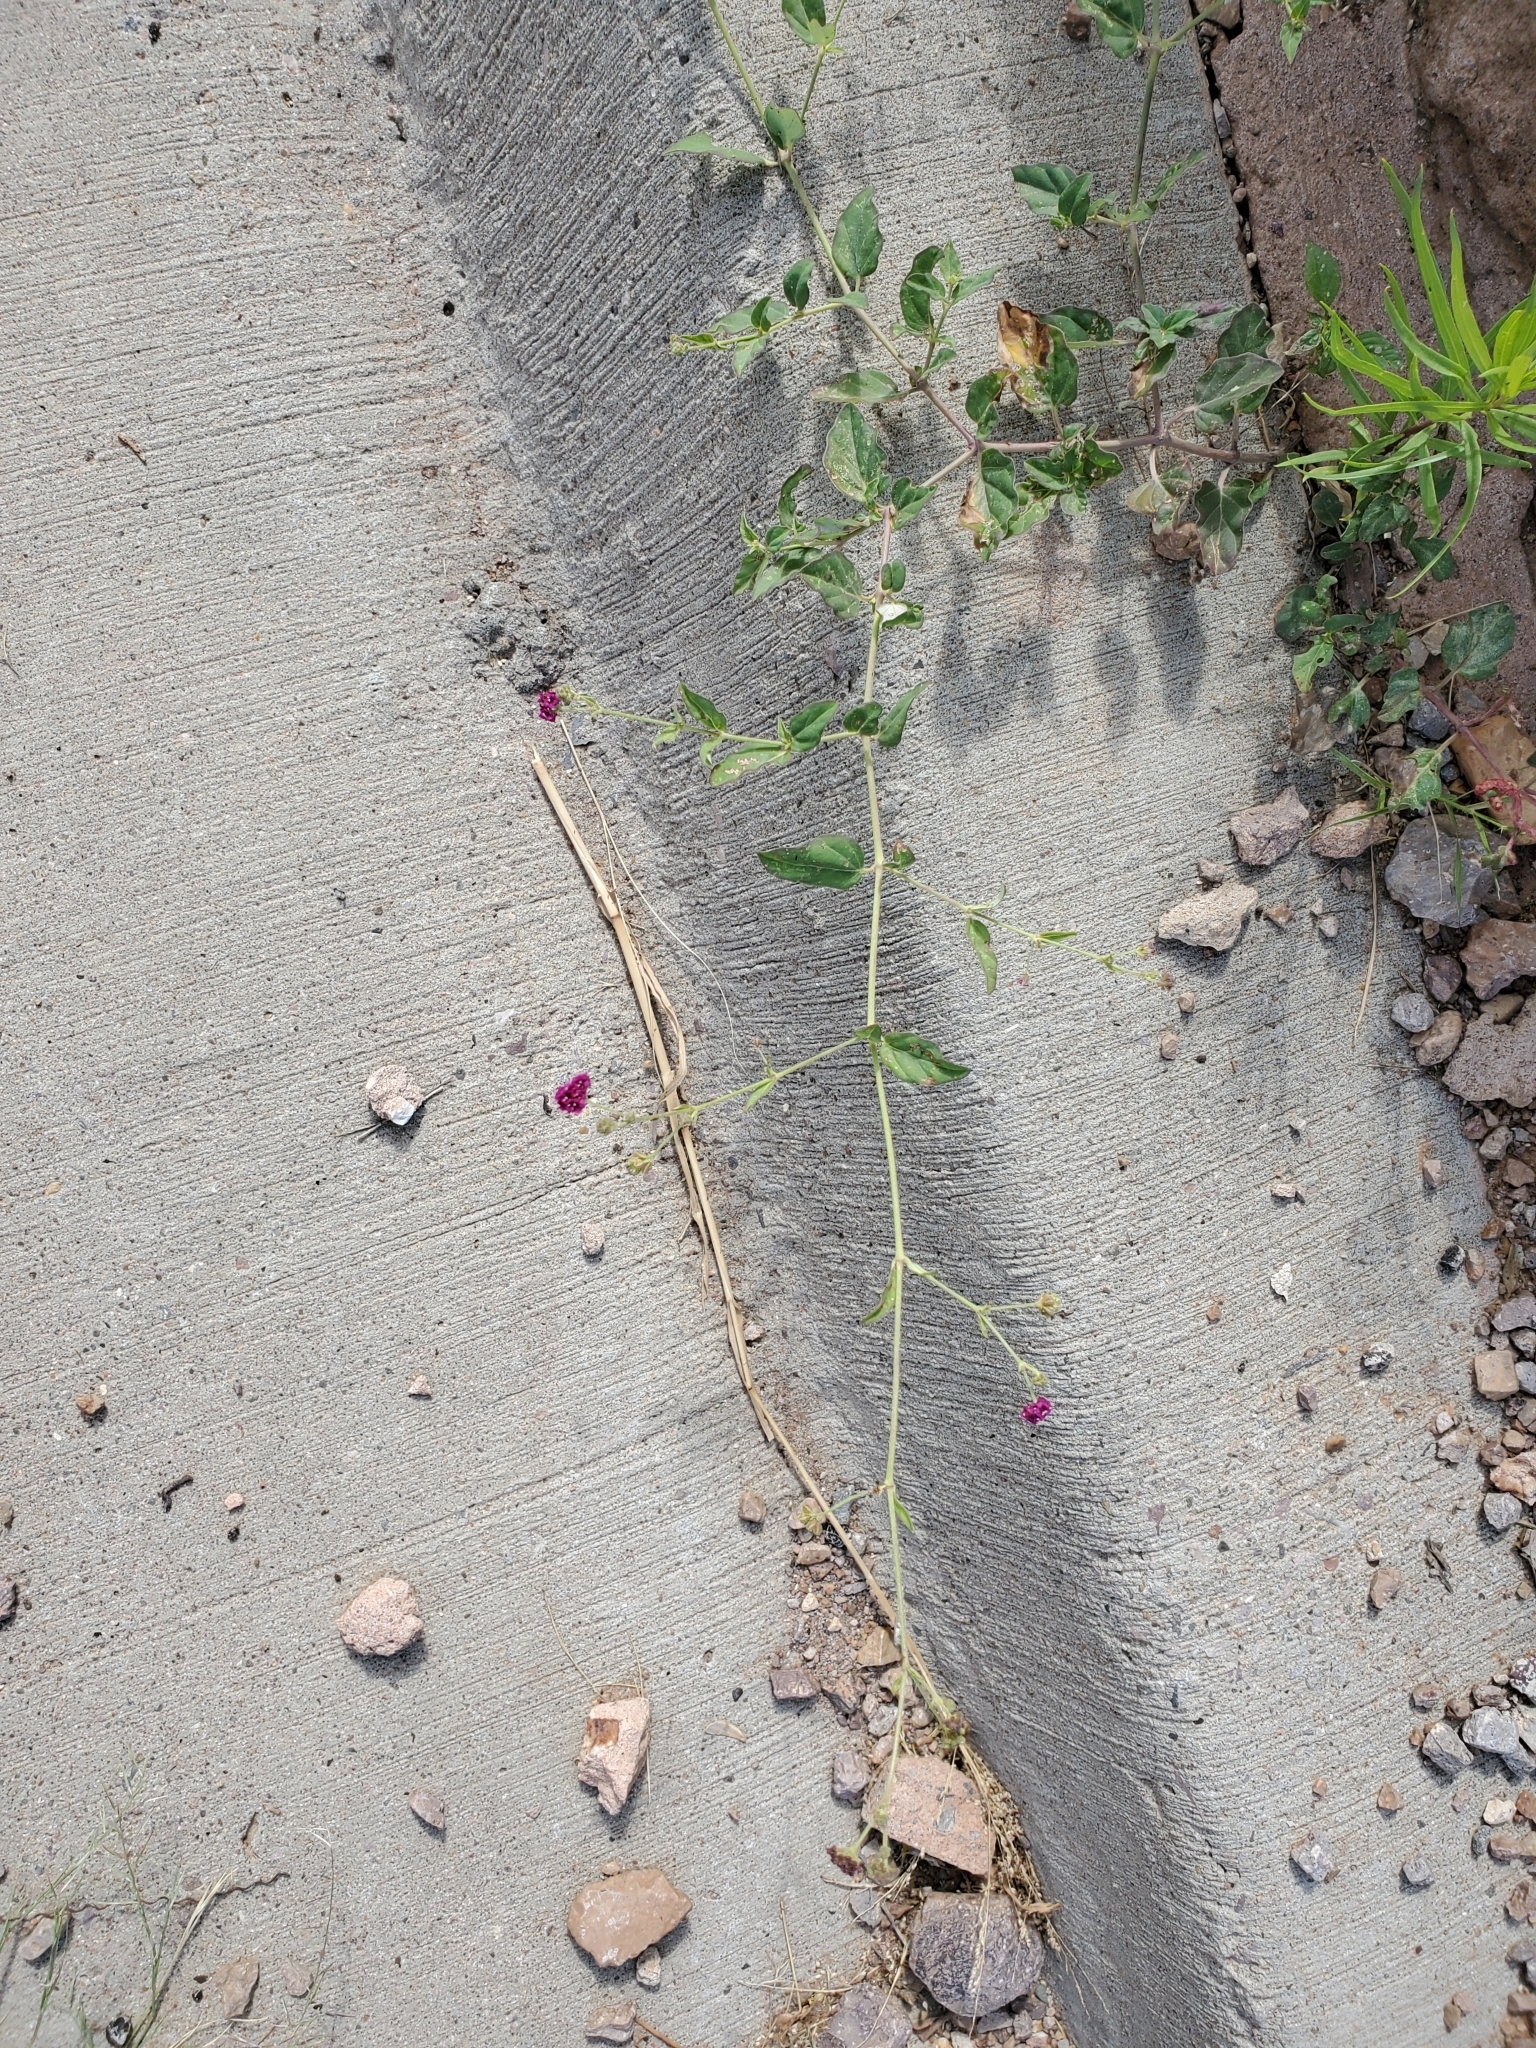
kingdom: Plantae
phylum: Tracheophyta
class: Magnoliopsida
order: Caryophyllales
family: Nyctaginaceae
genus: Boerhavia
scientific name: Boerhavia coccinea
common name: Scarlet spiderling
